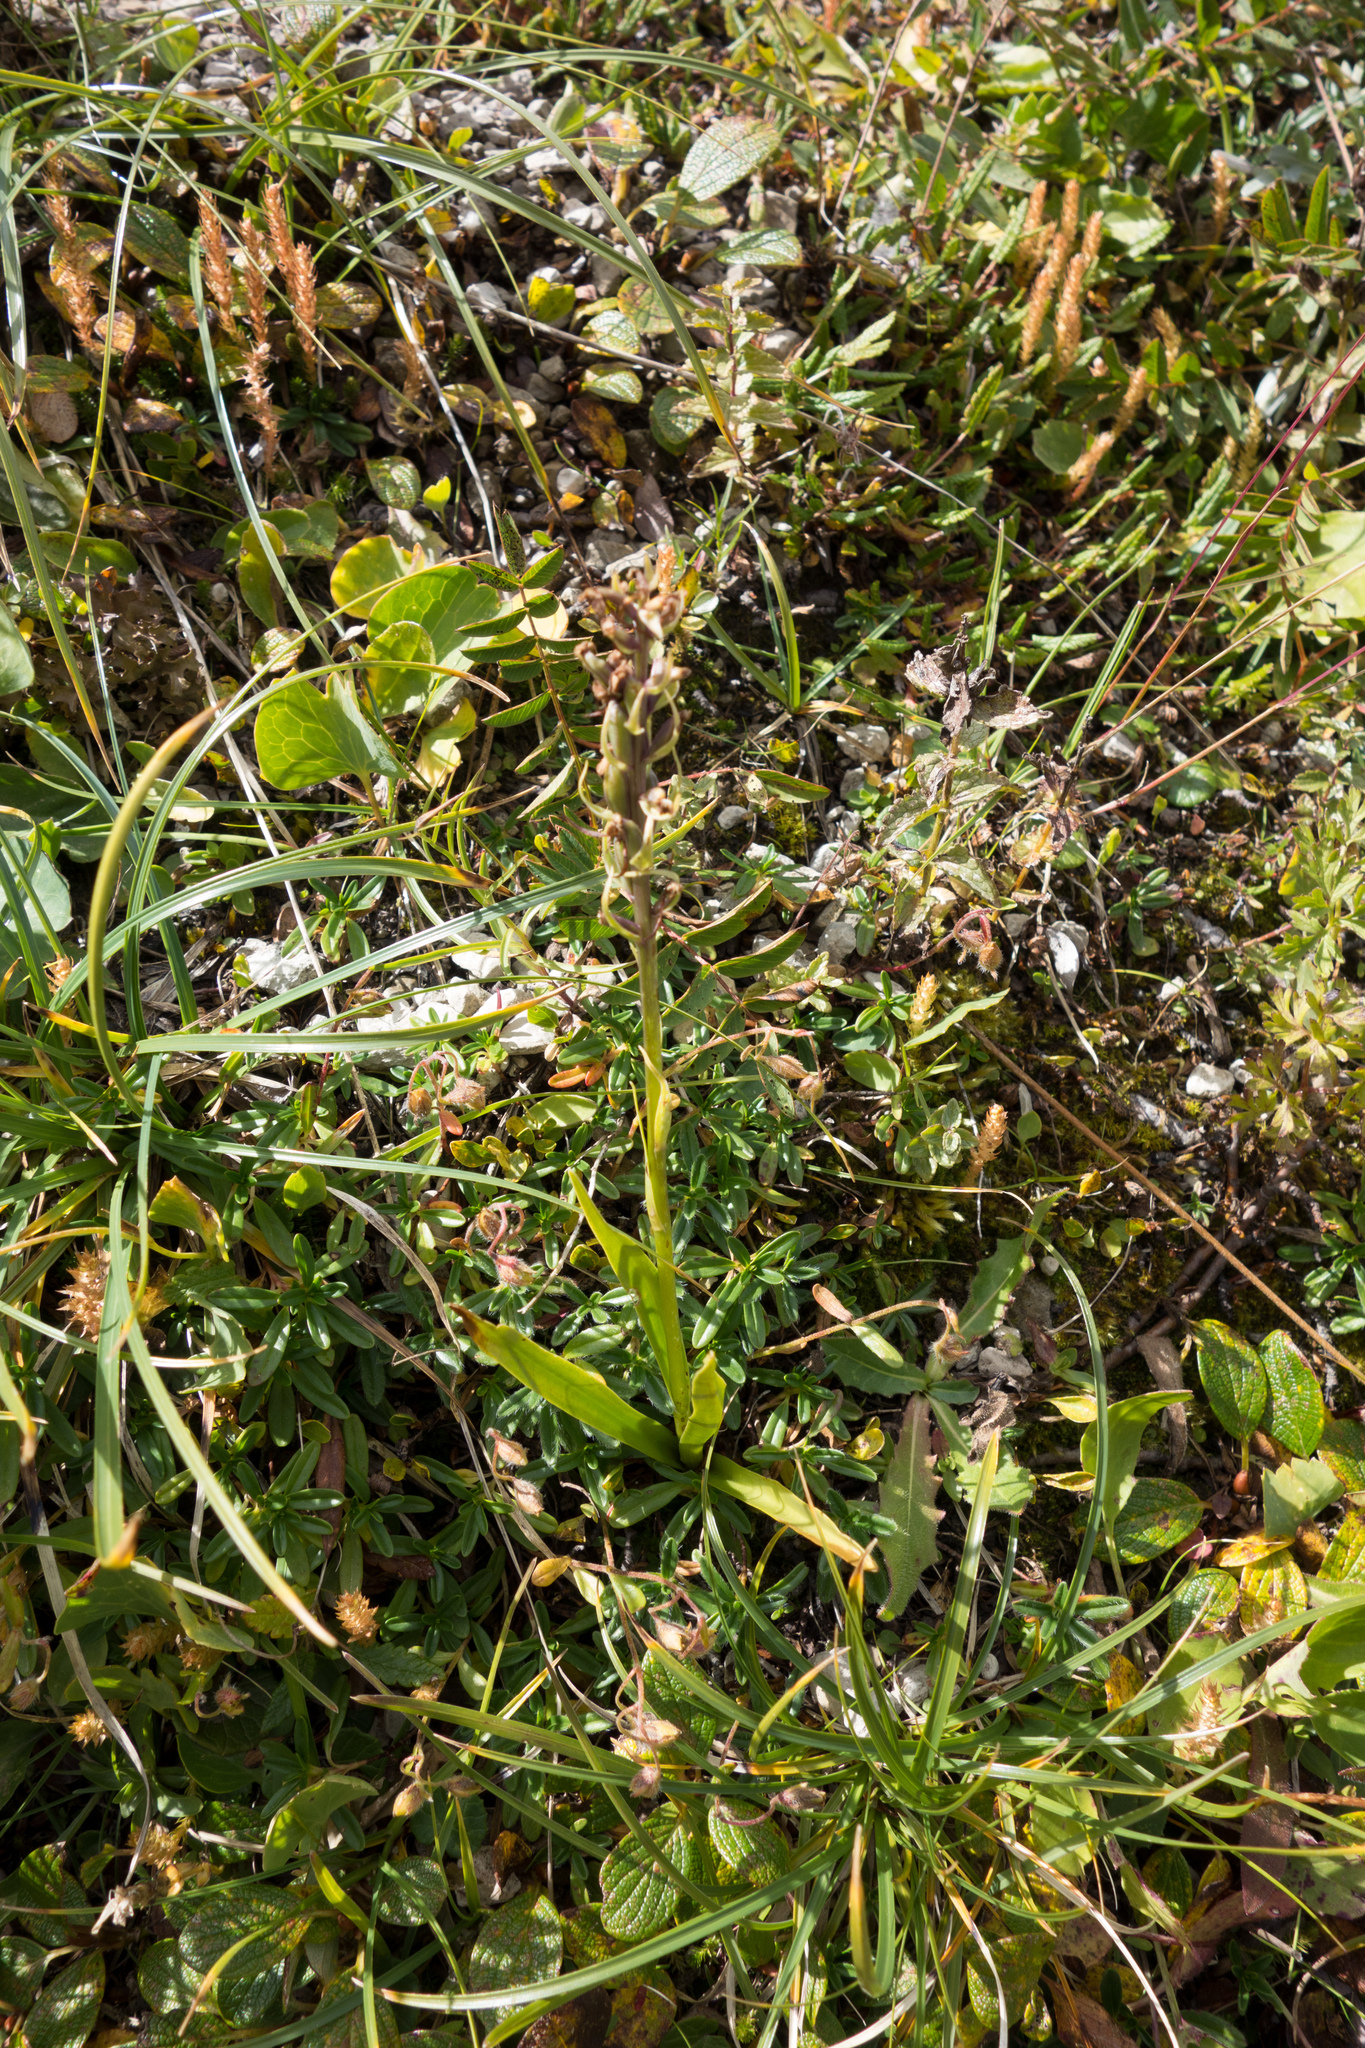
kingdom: Plantae
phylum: Tracheophyta
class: Liliopsida
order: Asparagales
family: Orchidaceae
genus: Dactylorhiza
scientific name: Dactylorhiza viridis
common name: Longbract frog orchid
